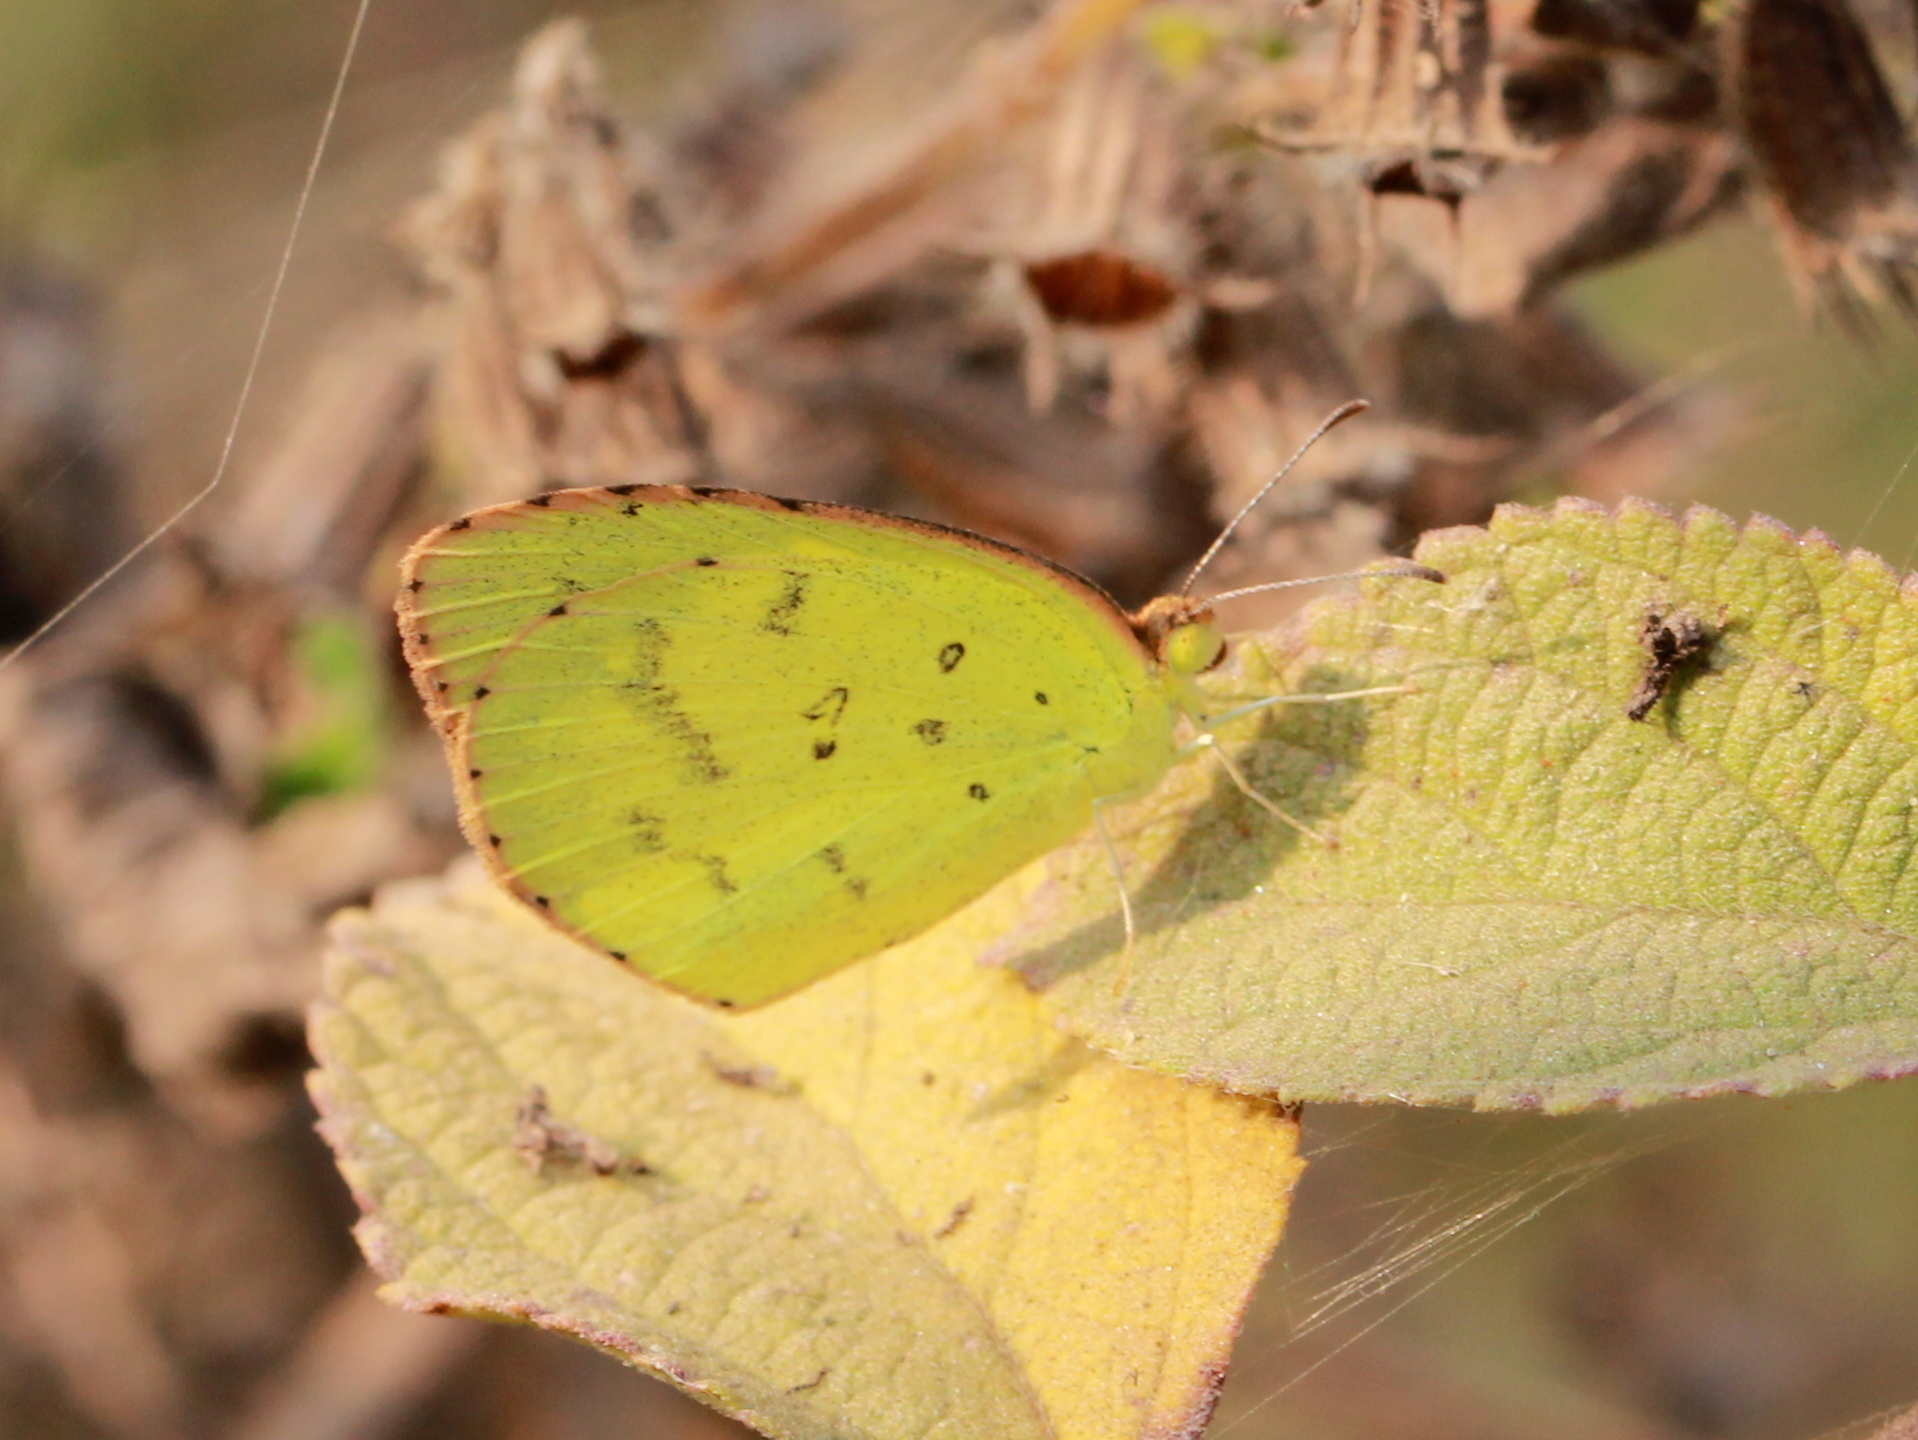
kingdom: Animalia
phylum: Arthropoda
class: Insecta
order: Lepidoptera
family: Pieridae
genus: Eurema
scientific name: Eurema brigitta
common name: Small grass yellow
